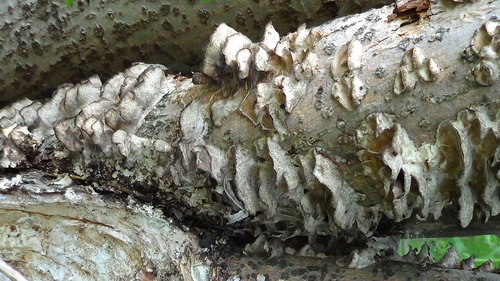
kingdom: Fungi
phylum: Basidiomycota
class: Agaricomycetes
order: Polyporales
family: Phanerochaetaceae
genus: Bjerkandera
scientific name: Bjerkandera adusta
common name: Smoky bracket
